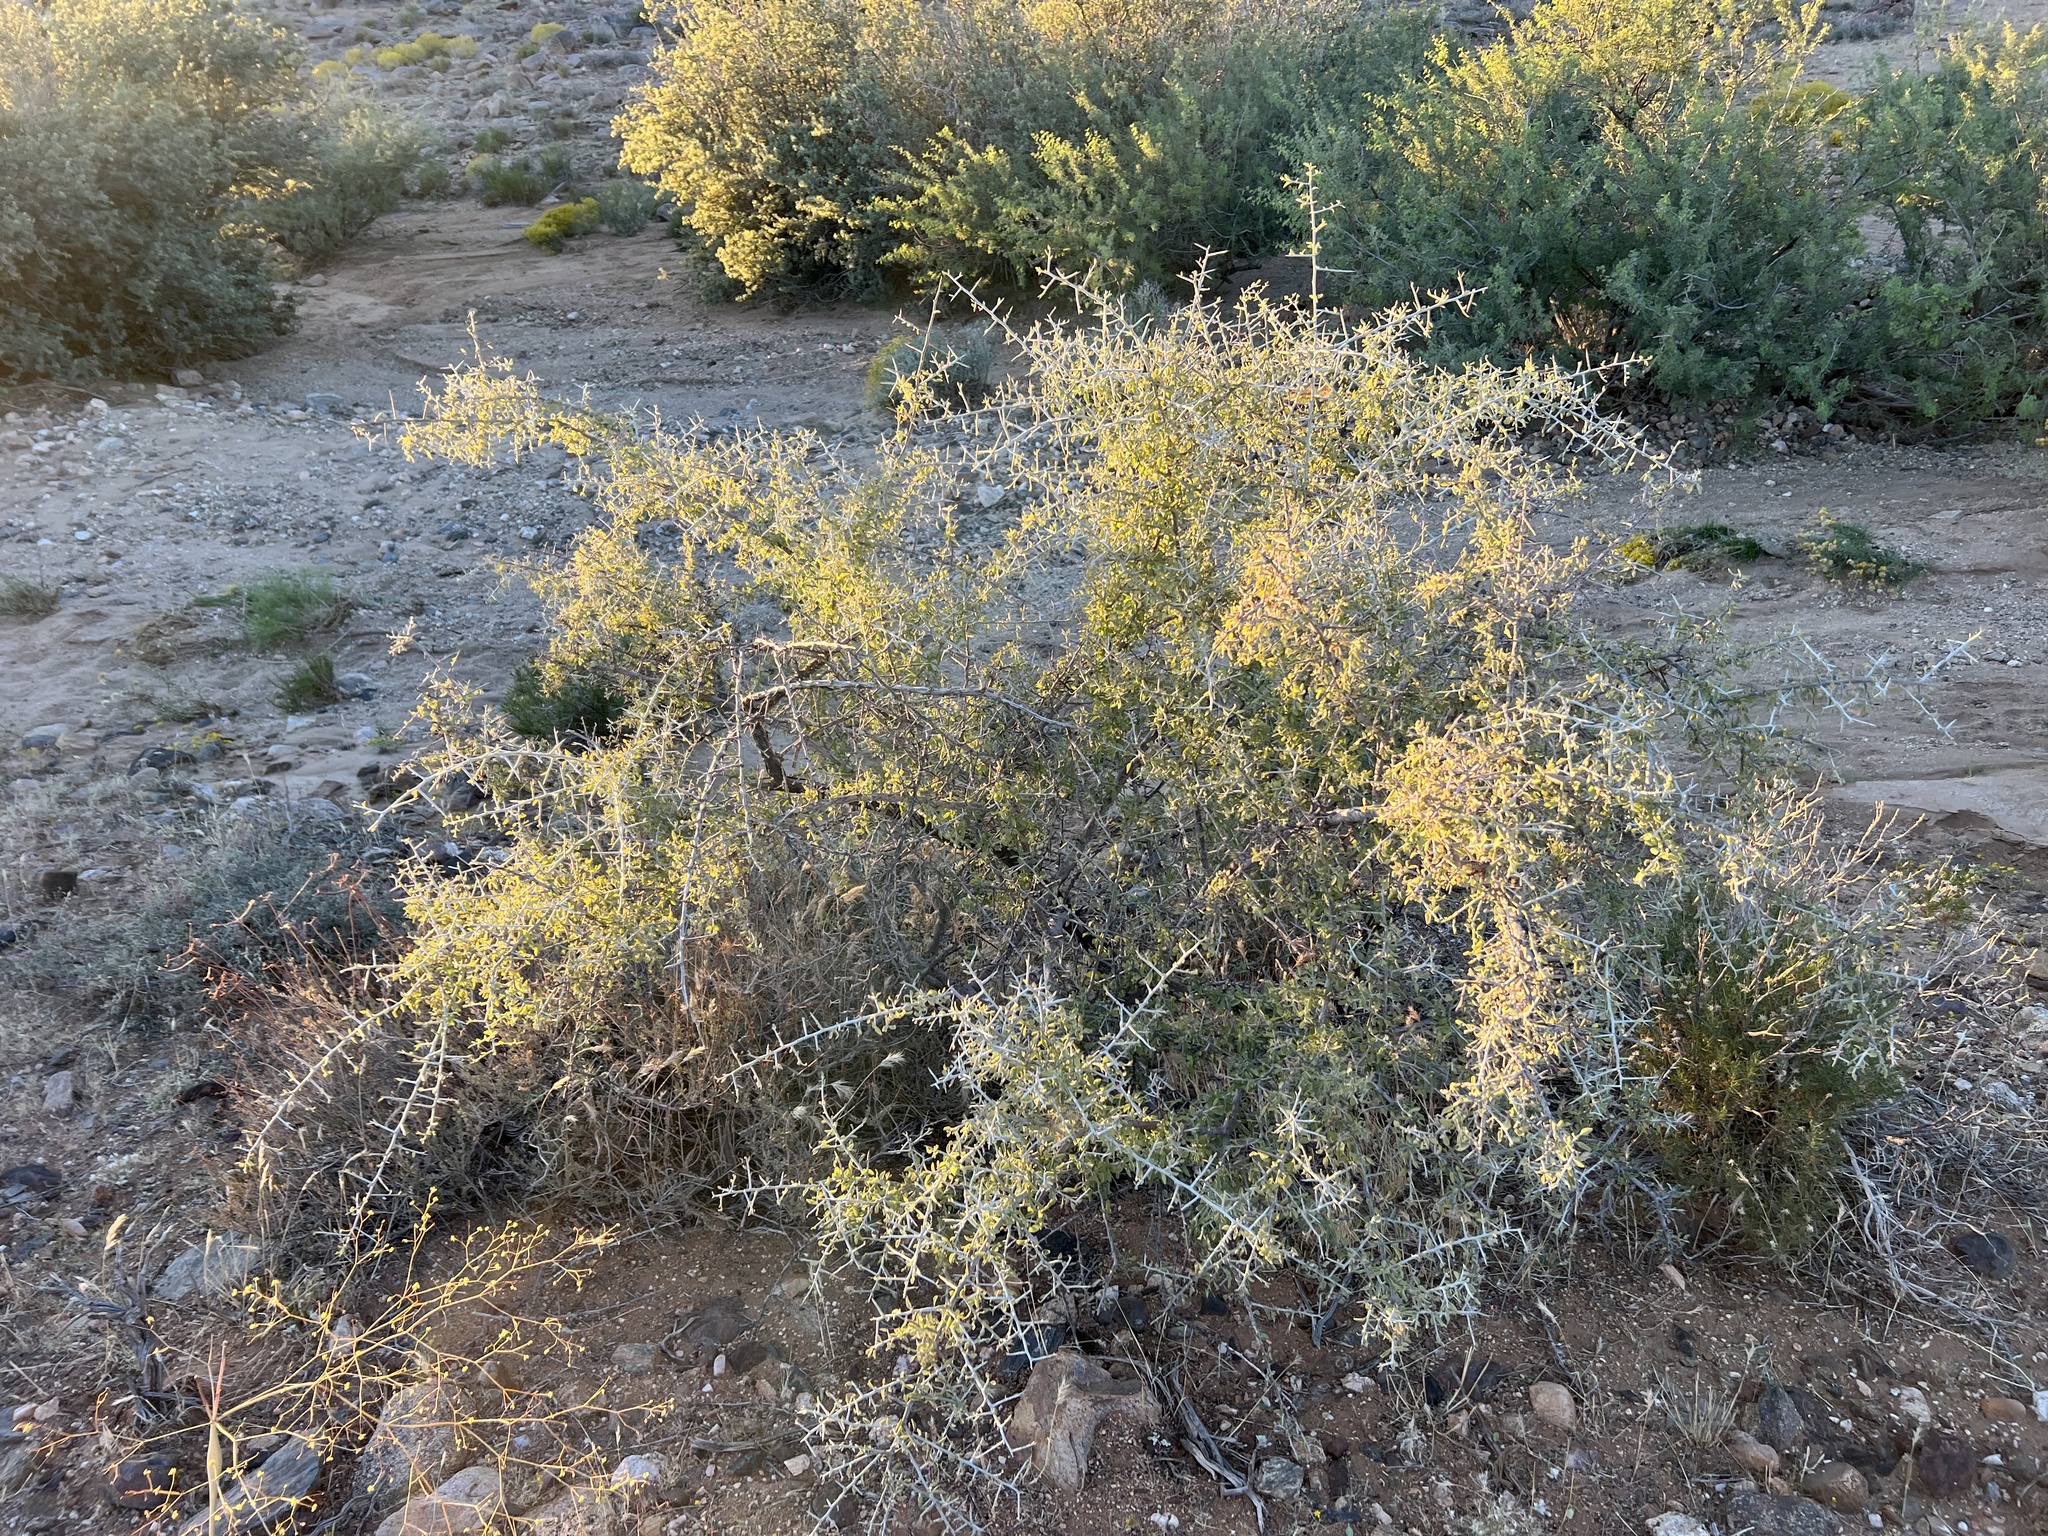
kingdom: Plantae
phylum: Tracheophyta
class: Magnoliopsida
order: Rosales
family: Rhamnaceae
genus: Sarcomphalus
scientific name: Sarcomphalus obtusifolius
